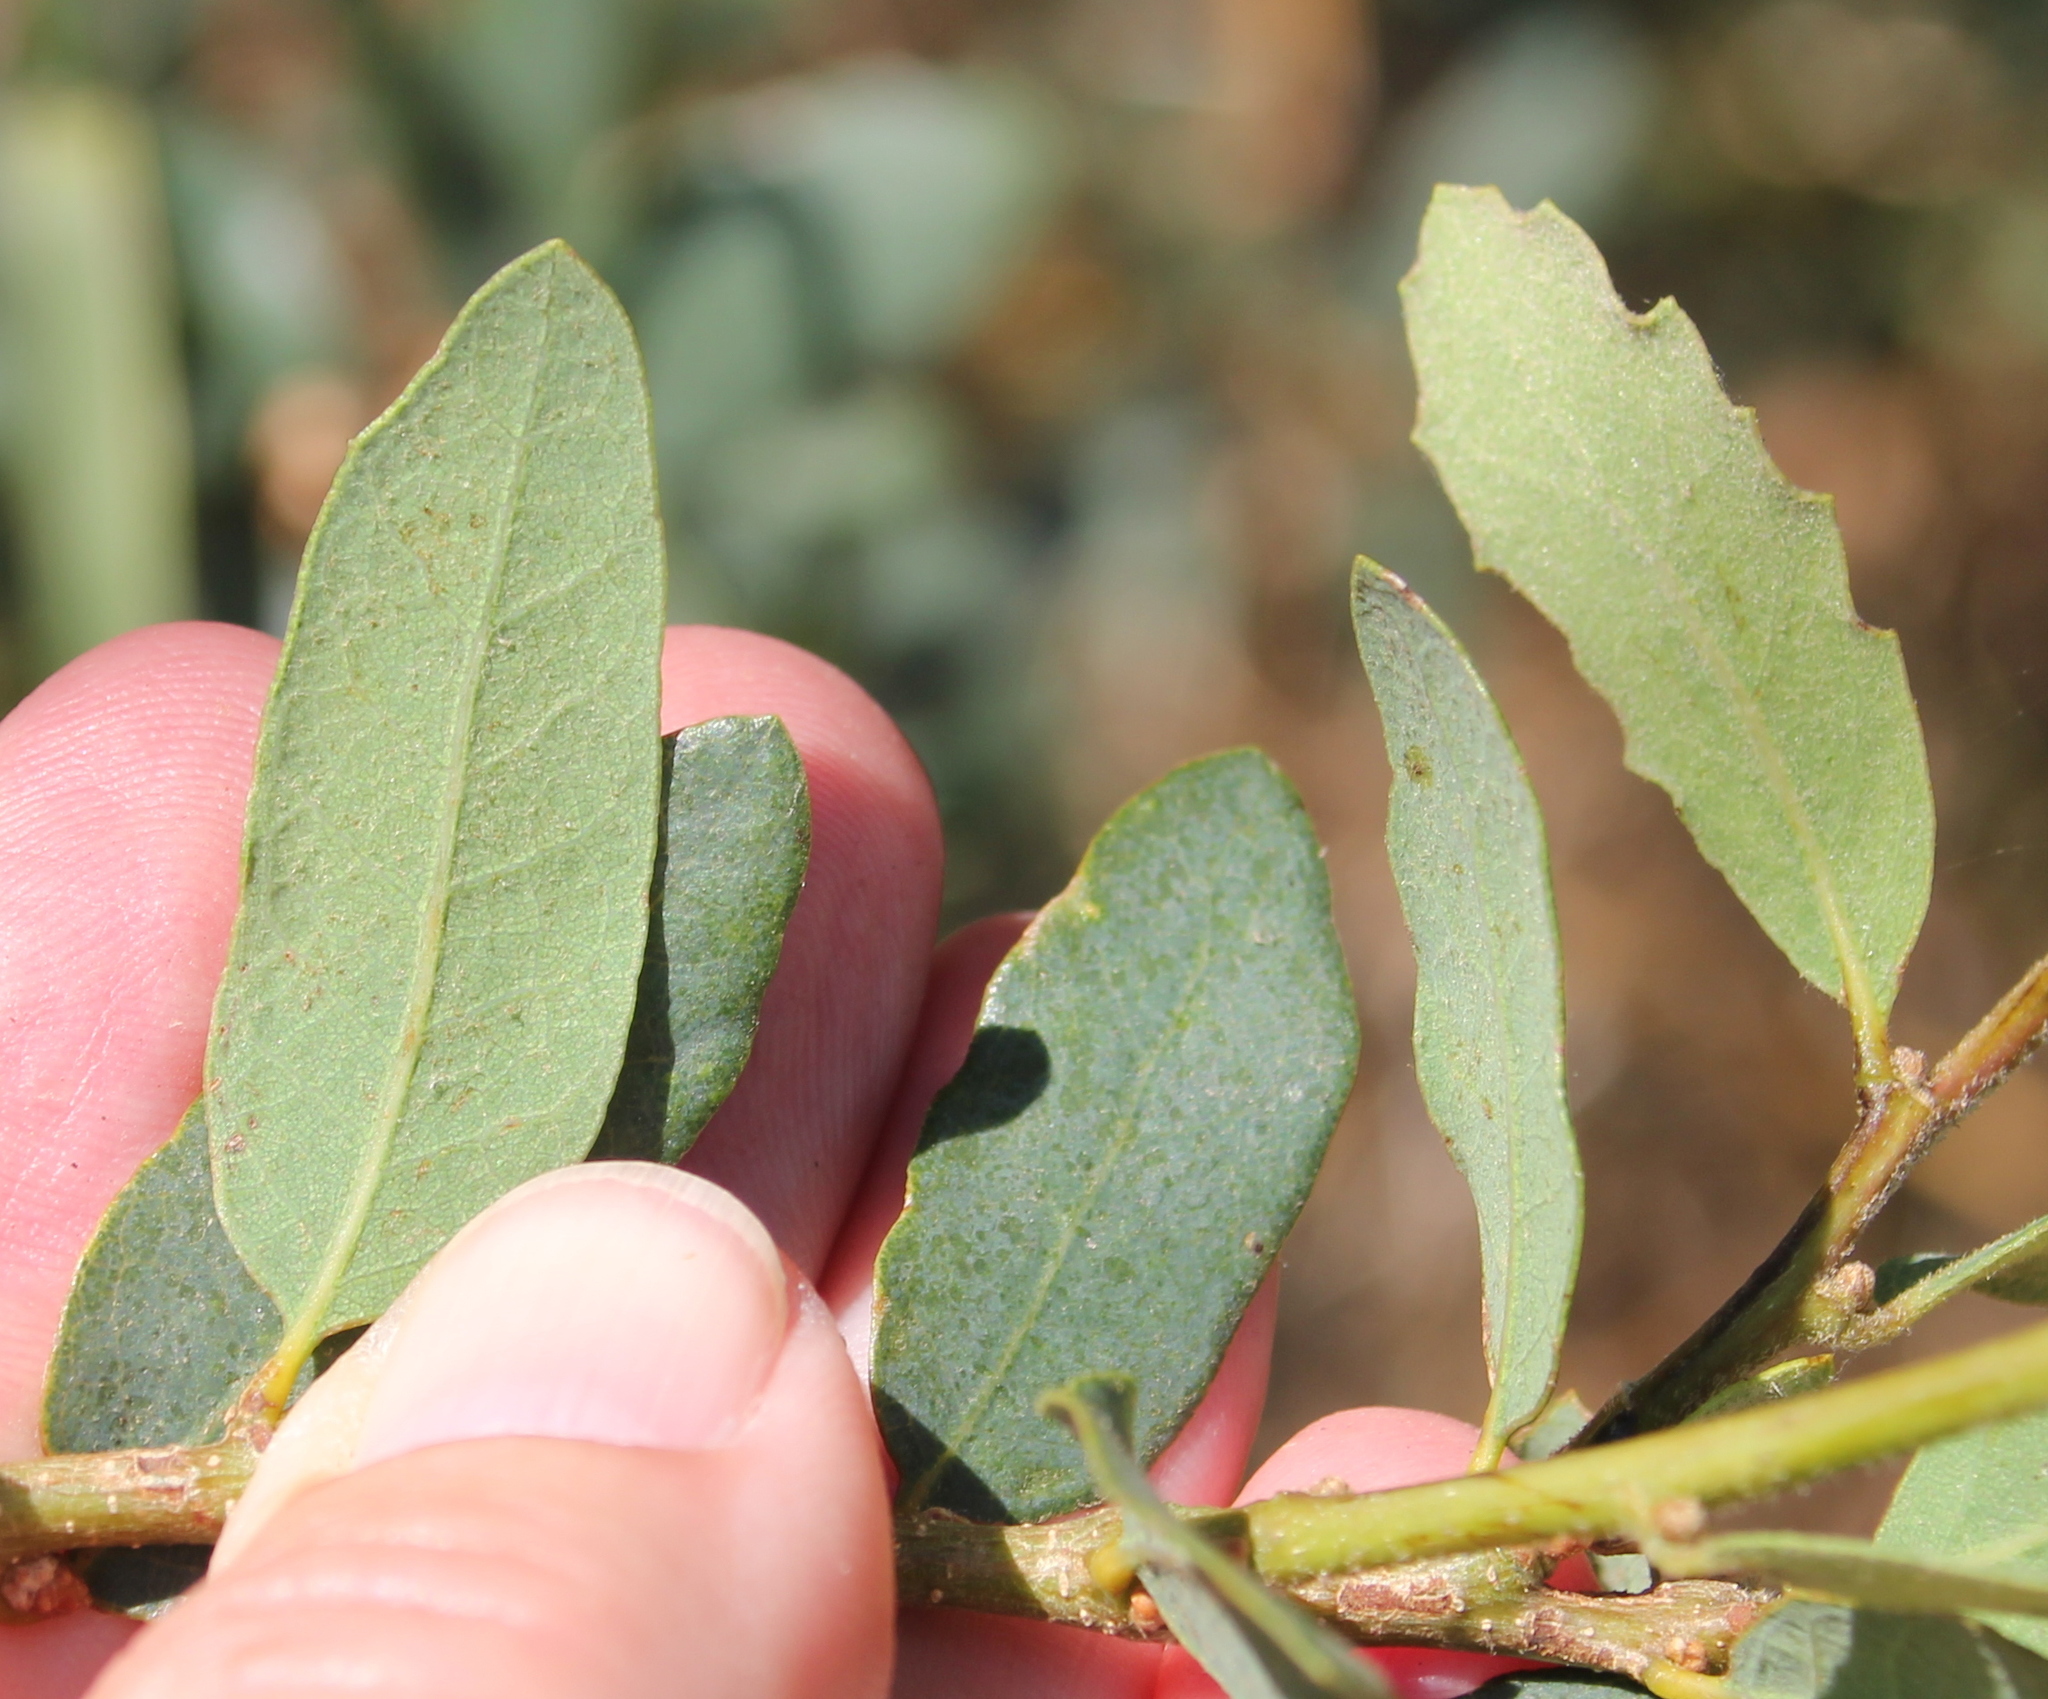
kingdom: Plantae
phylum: Tracheophyta
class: Magnoliopsida
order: Fagales
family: Fagaceae
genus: Quercus
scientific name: Quercus acutidens
